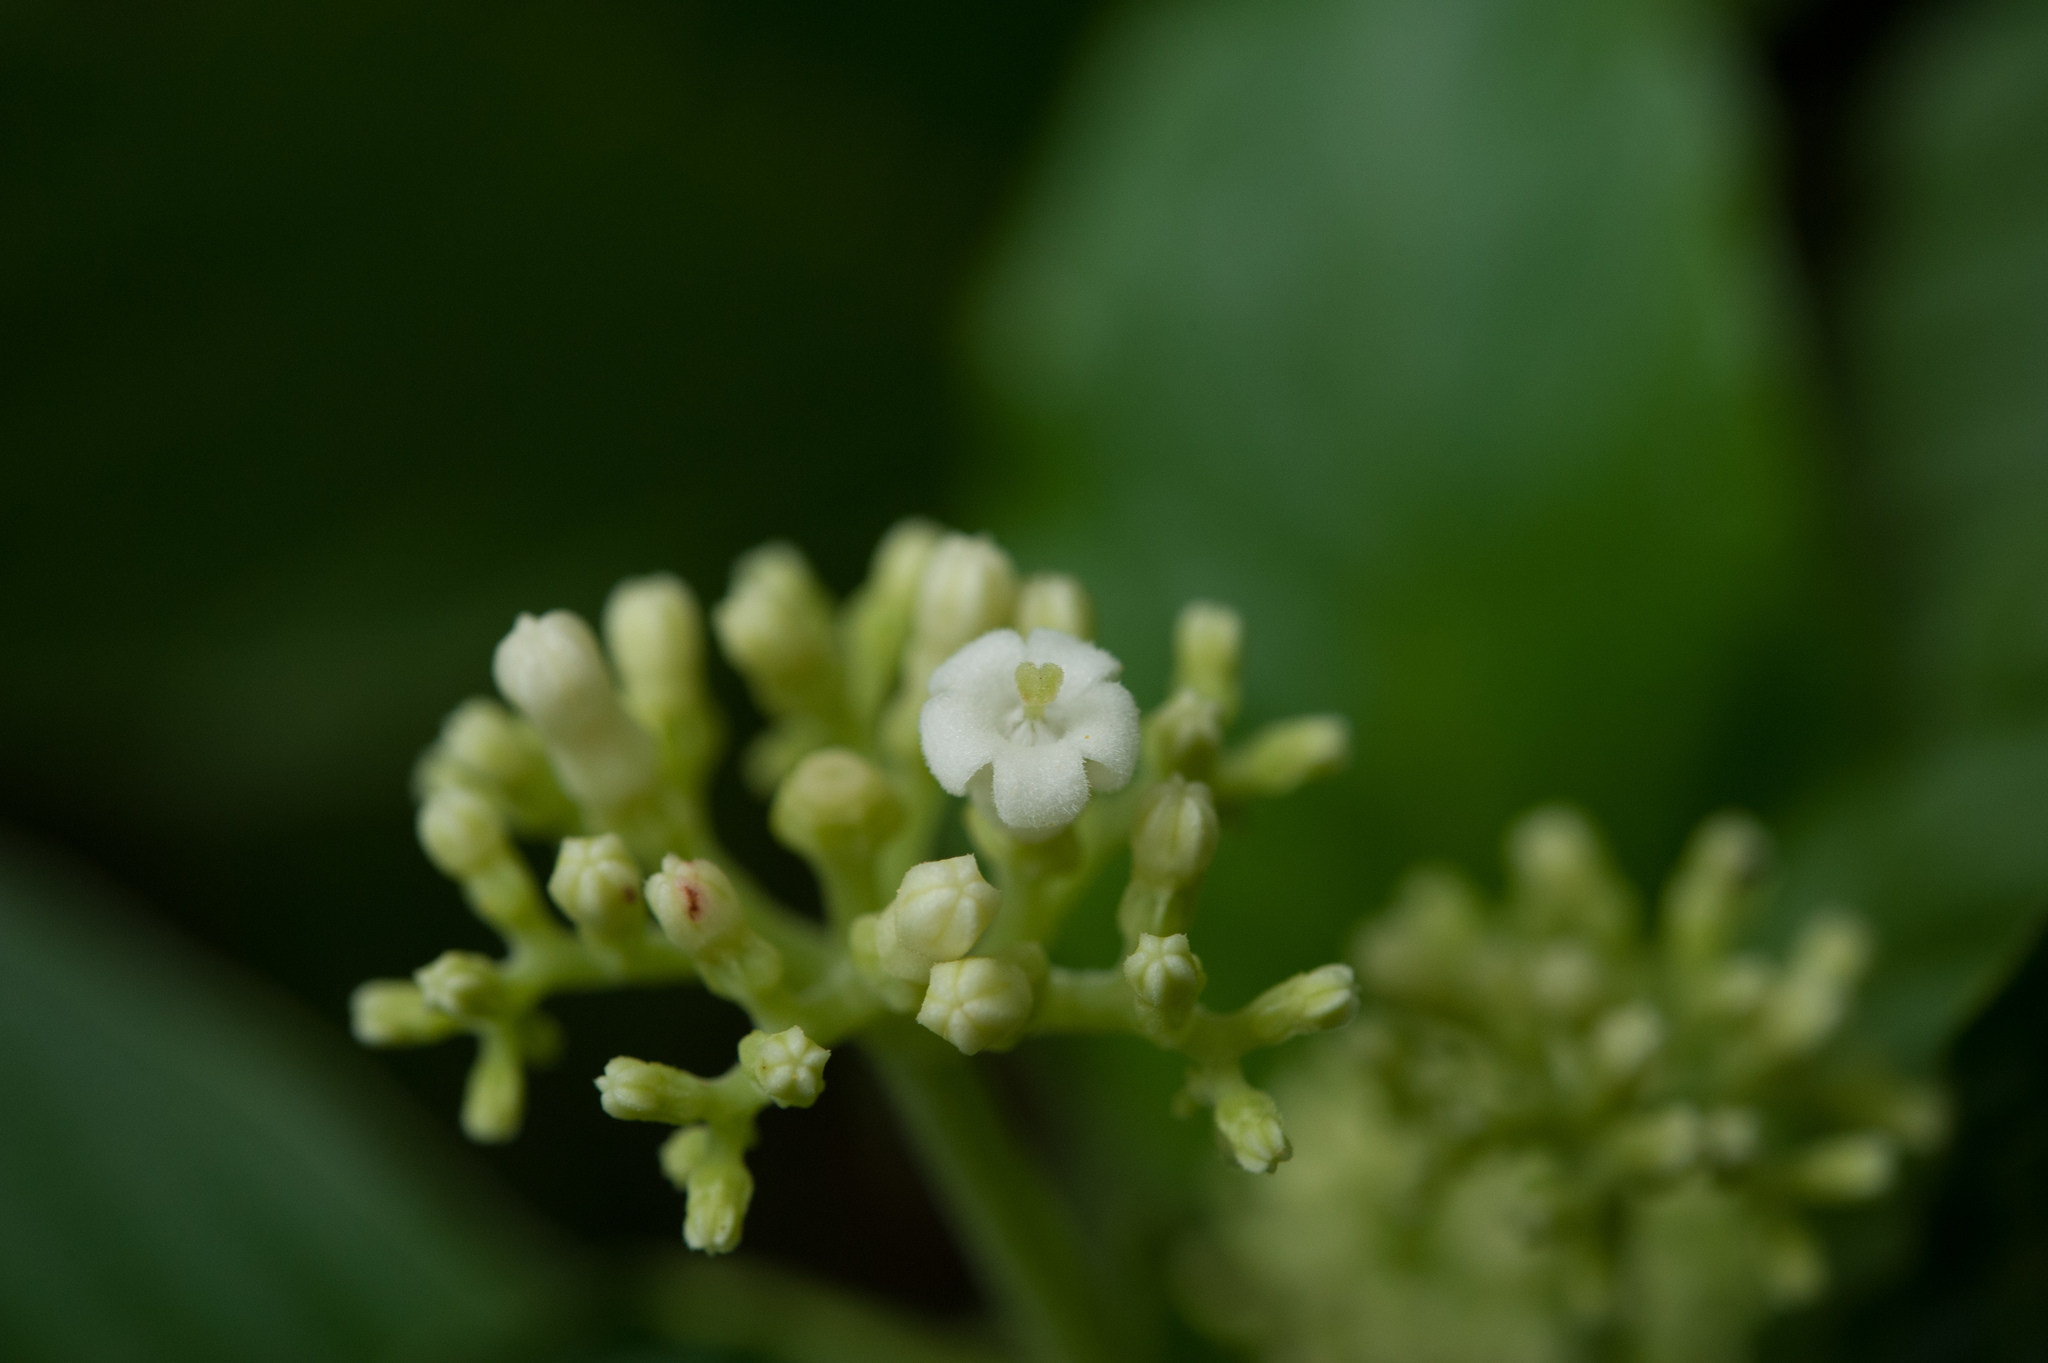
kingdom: Plantae
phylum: Tracheophyta
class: Magnoliopsida
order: Gentianales
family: Rubiaceae
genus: Ophiorrhiza
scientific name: Ophiorrhiza kuroiwae
